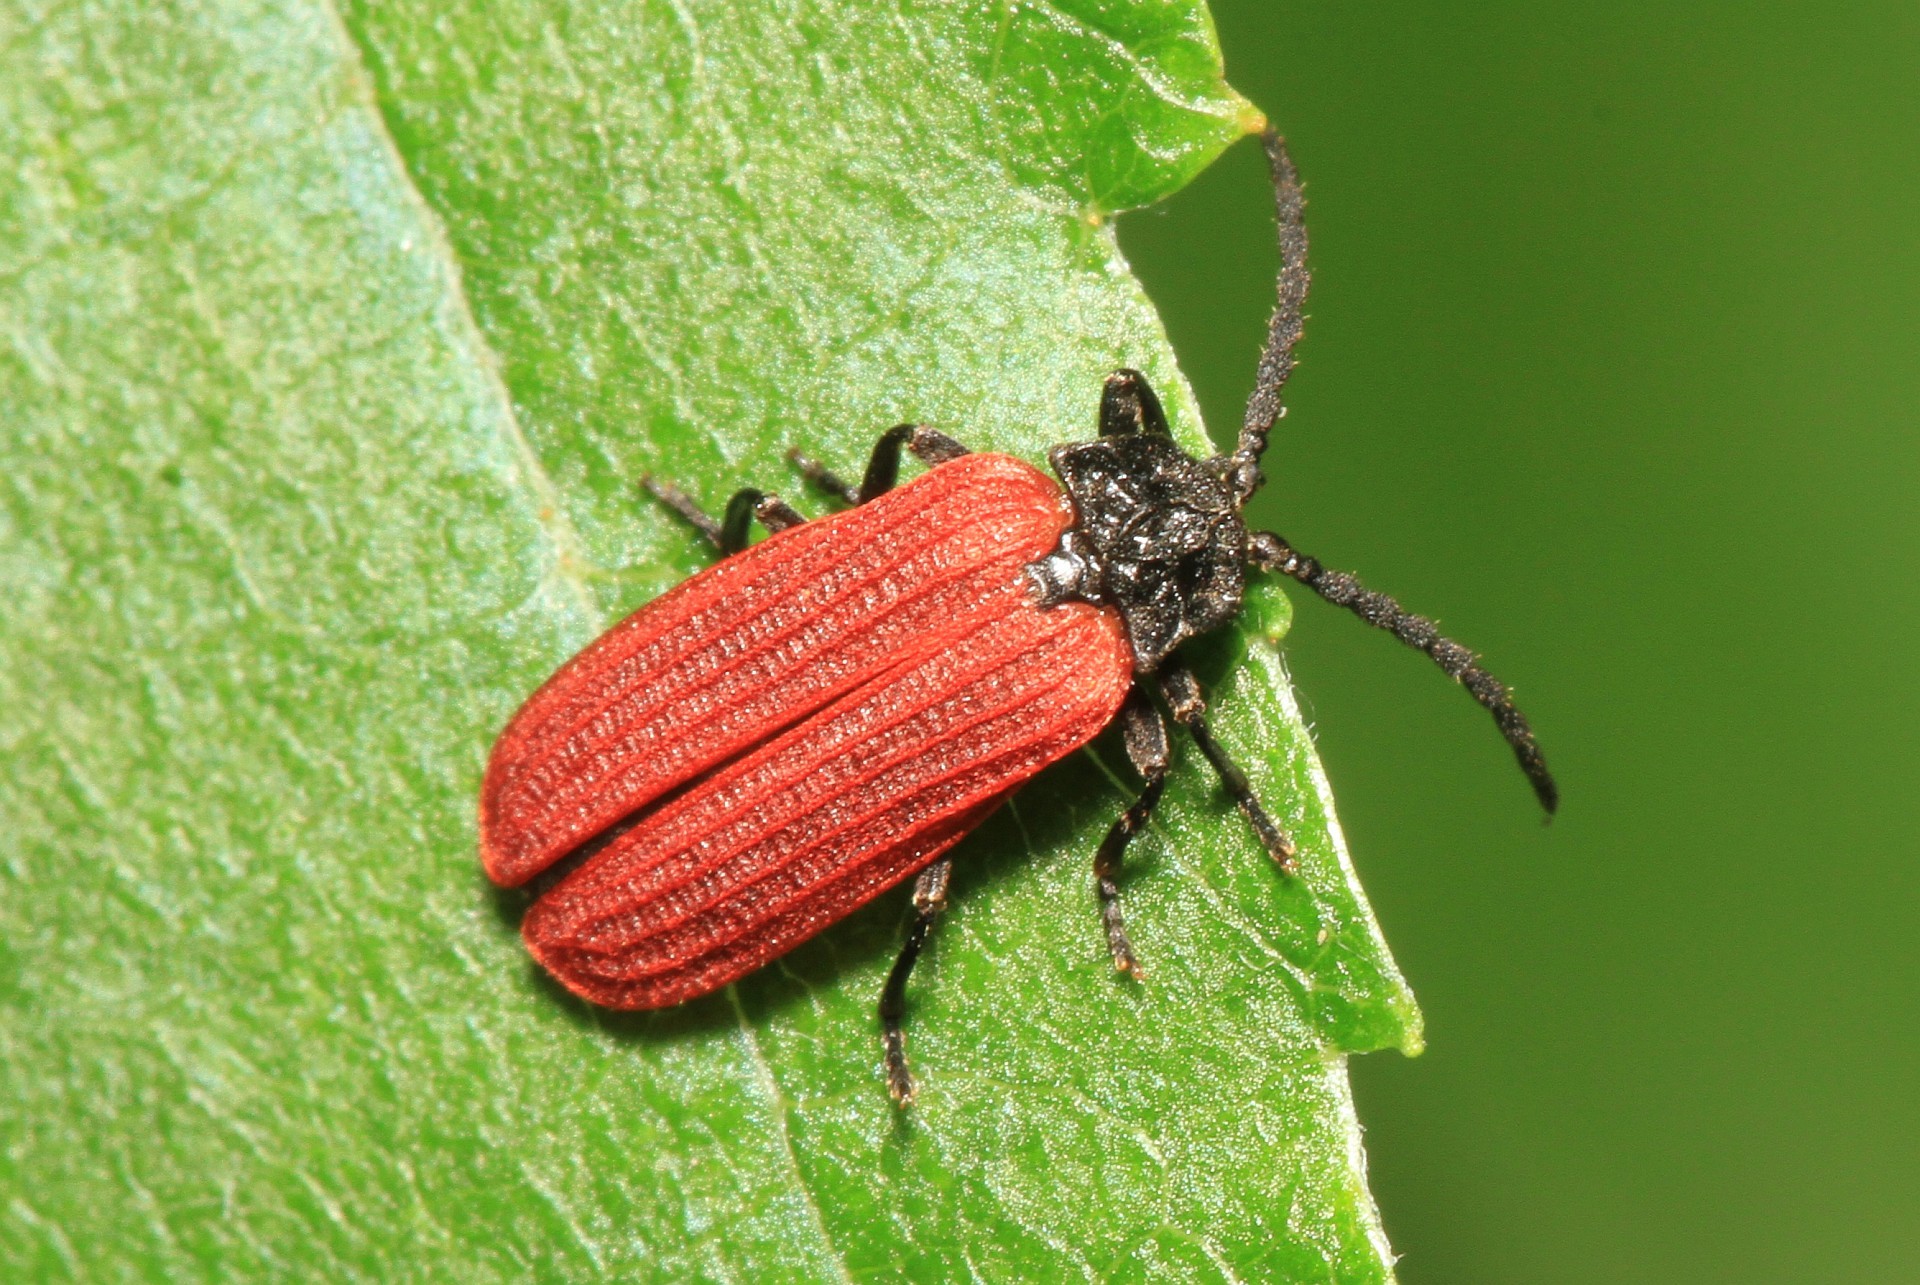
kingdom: Animalia
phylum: Arthropoda
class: Insecta
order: Coleoptera
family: Lycidae
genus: Pyropterus
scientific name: Pyropterus nigroruber
